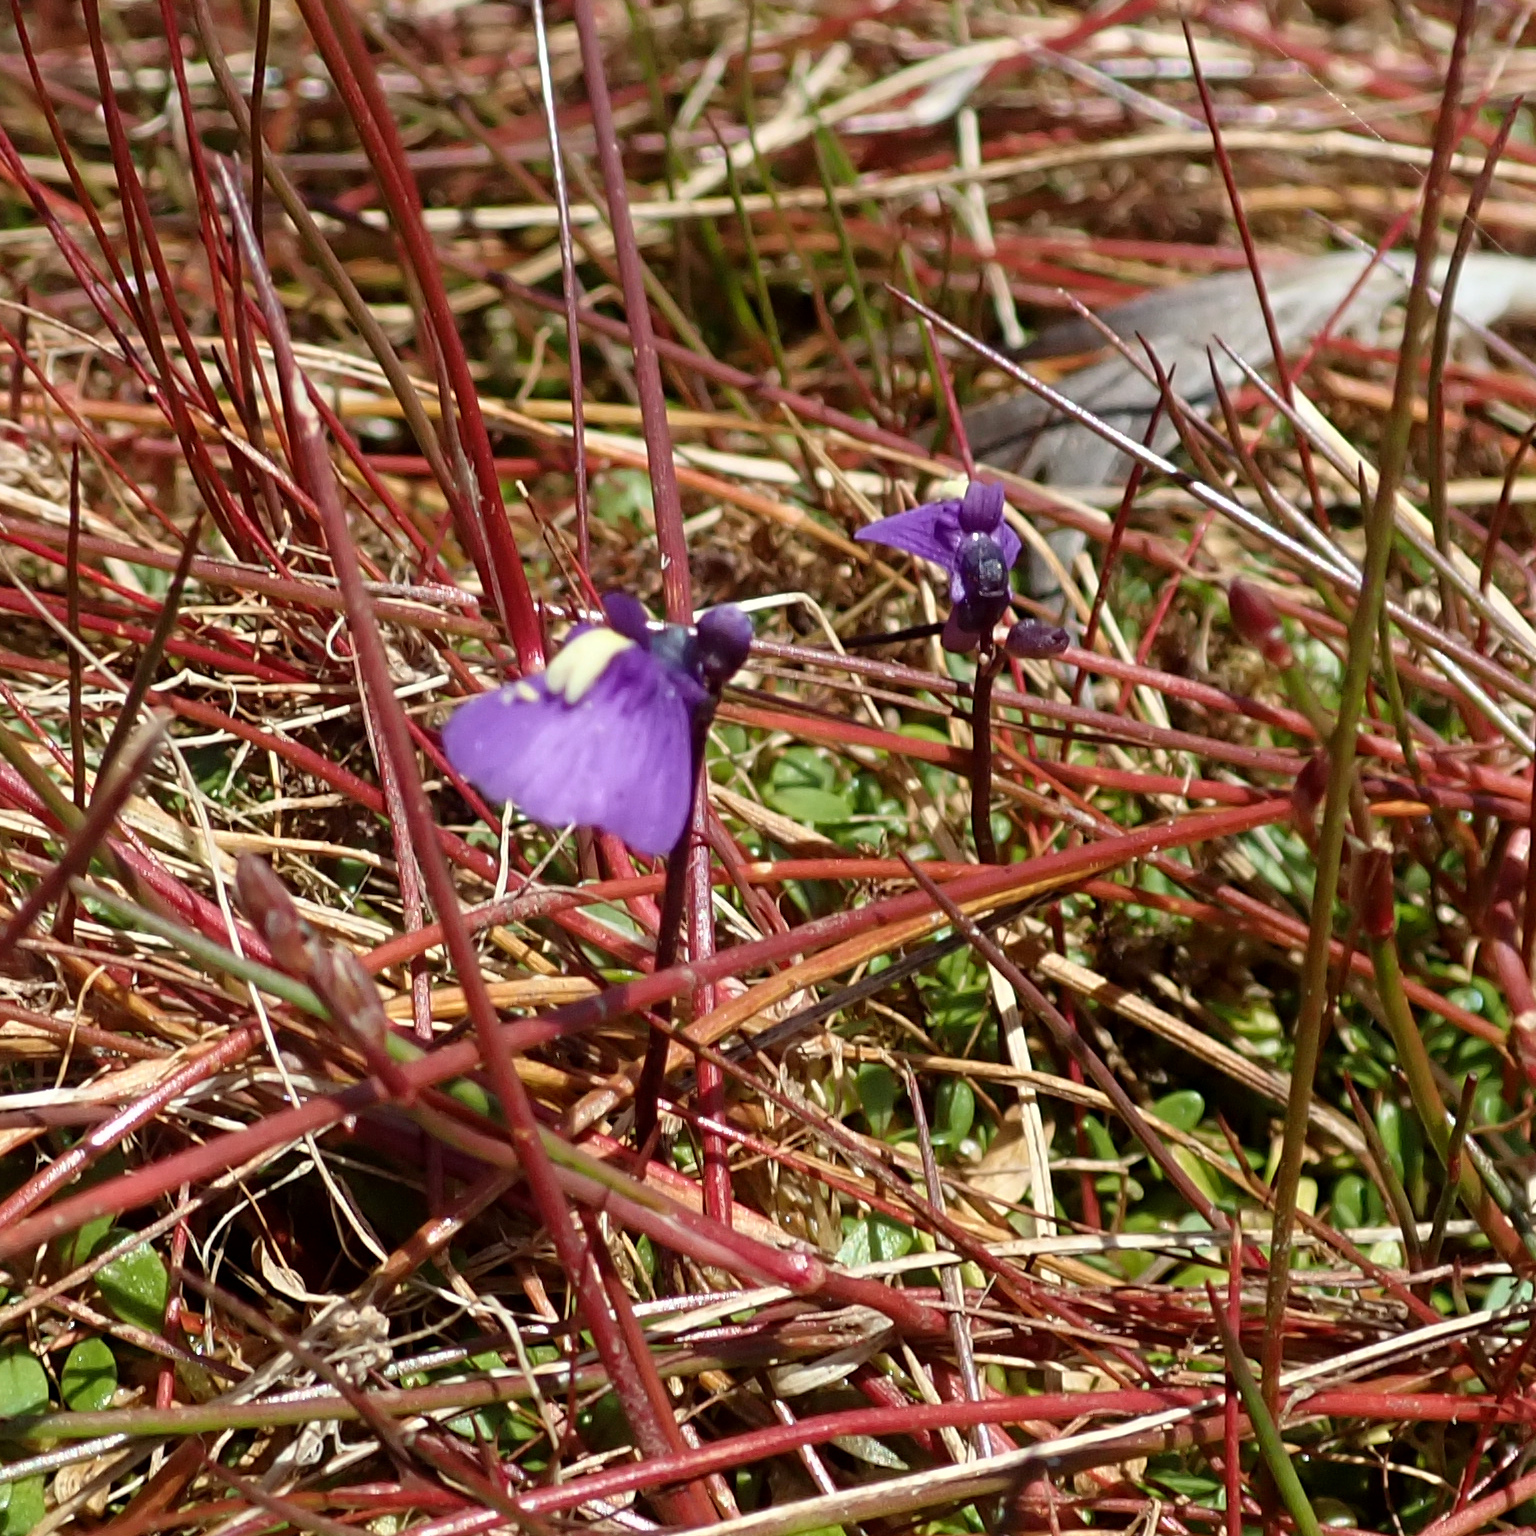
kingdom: Plantae
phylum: Tracheophyta
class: Magnoliopsida
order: Lamiales
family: Lentibulariaceae
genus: Utricularia
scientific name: Utricularia dichotoma
